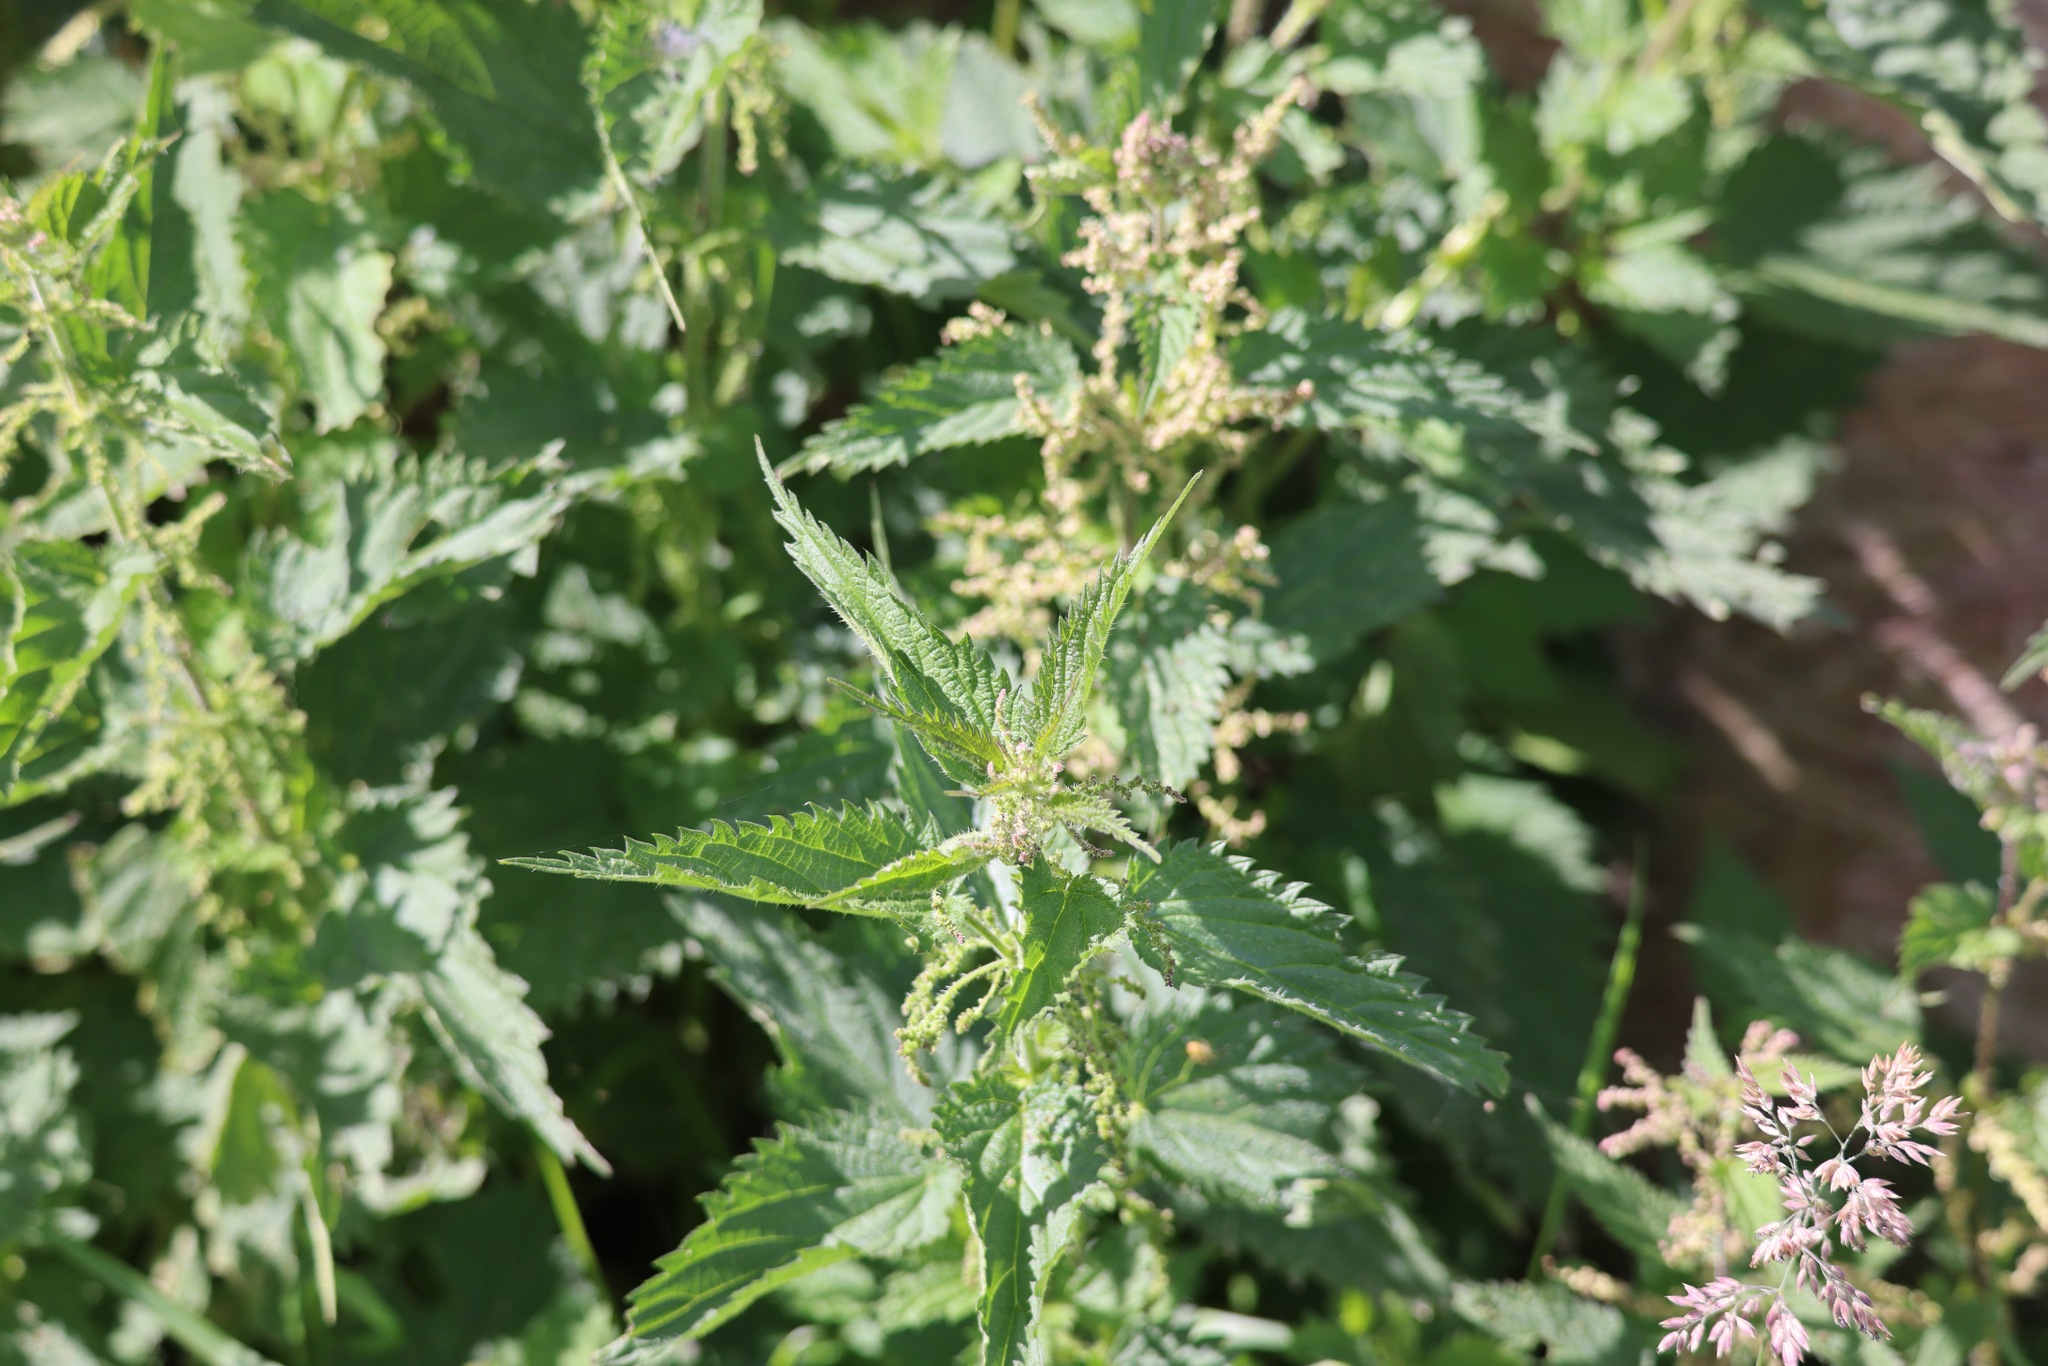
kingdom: Plantae
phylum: Tracheophyta
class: Magnoliopsida
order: Rosales
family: Urticaceae
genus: Urtica
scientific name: Urtica dioica
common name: Common nettle
